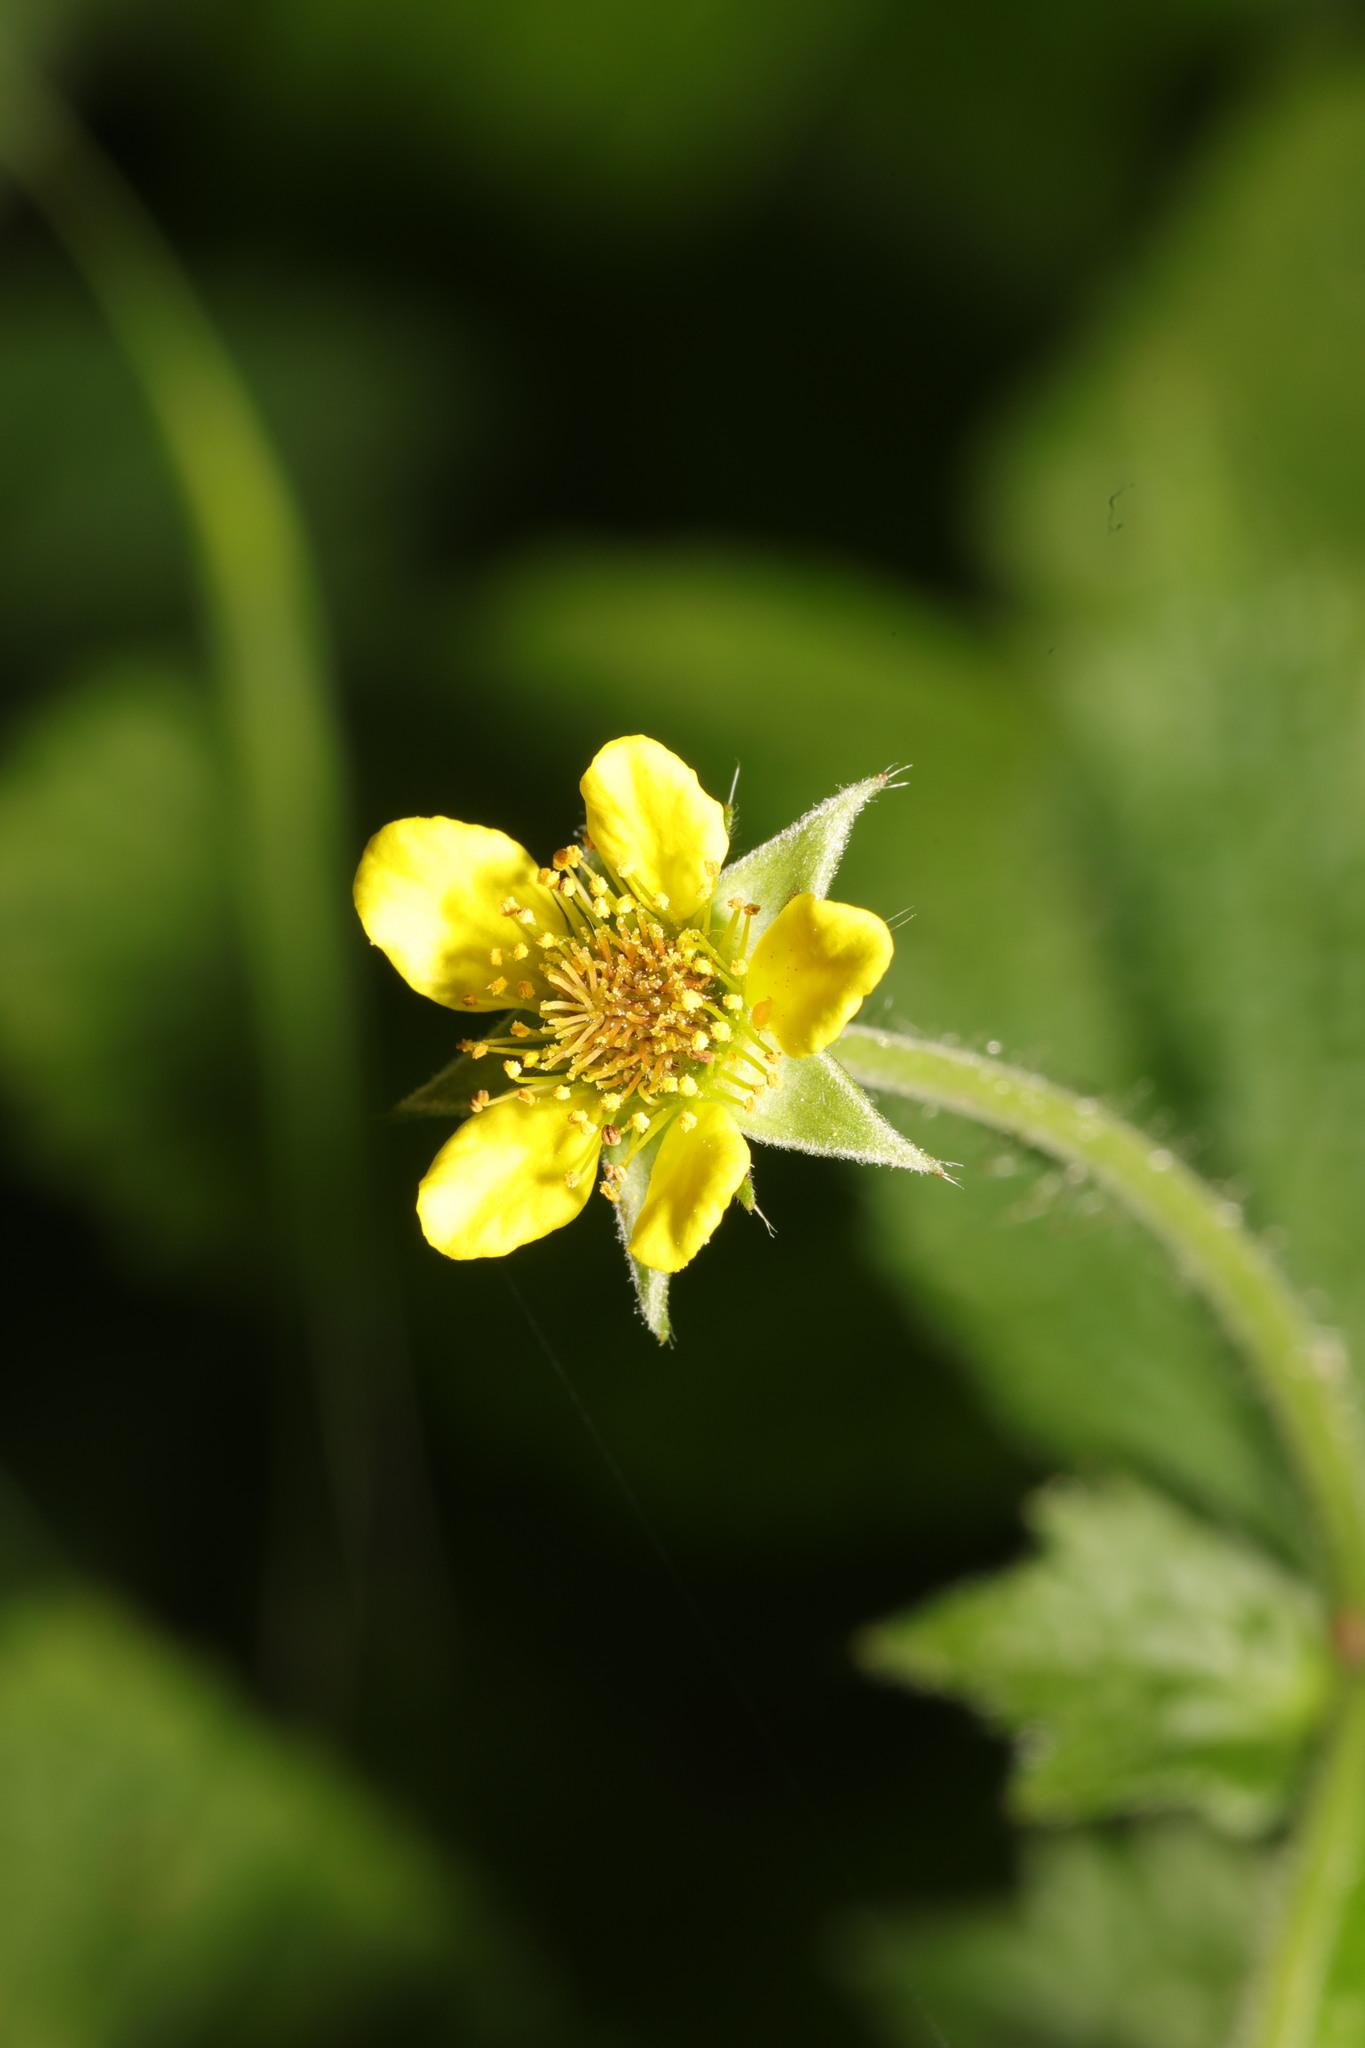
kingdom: Plantae
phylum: Tracheophyta
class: Magnoliopsida
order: Rosales
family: Rosaceae
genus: Geum
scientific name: Geum urbanum
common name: Wood avens
